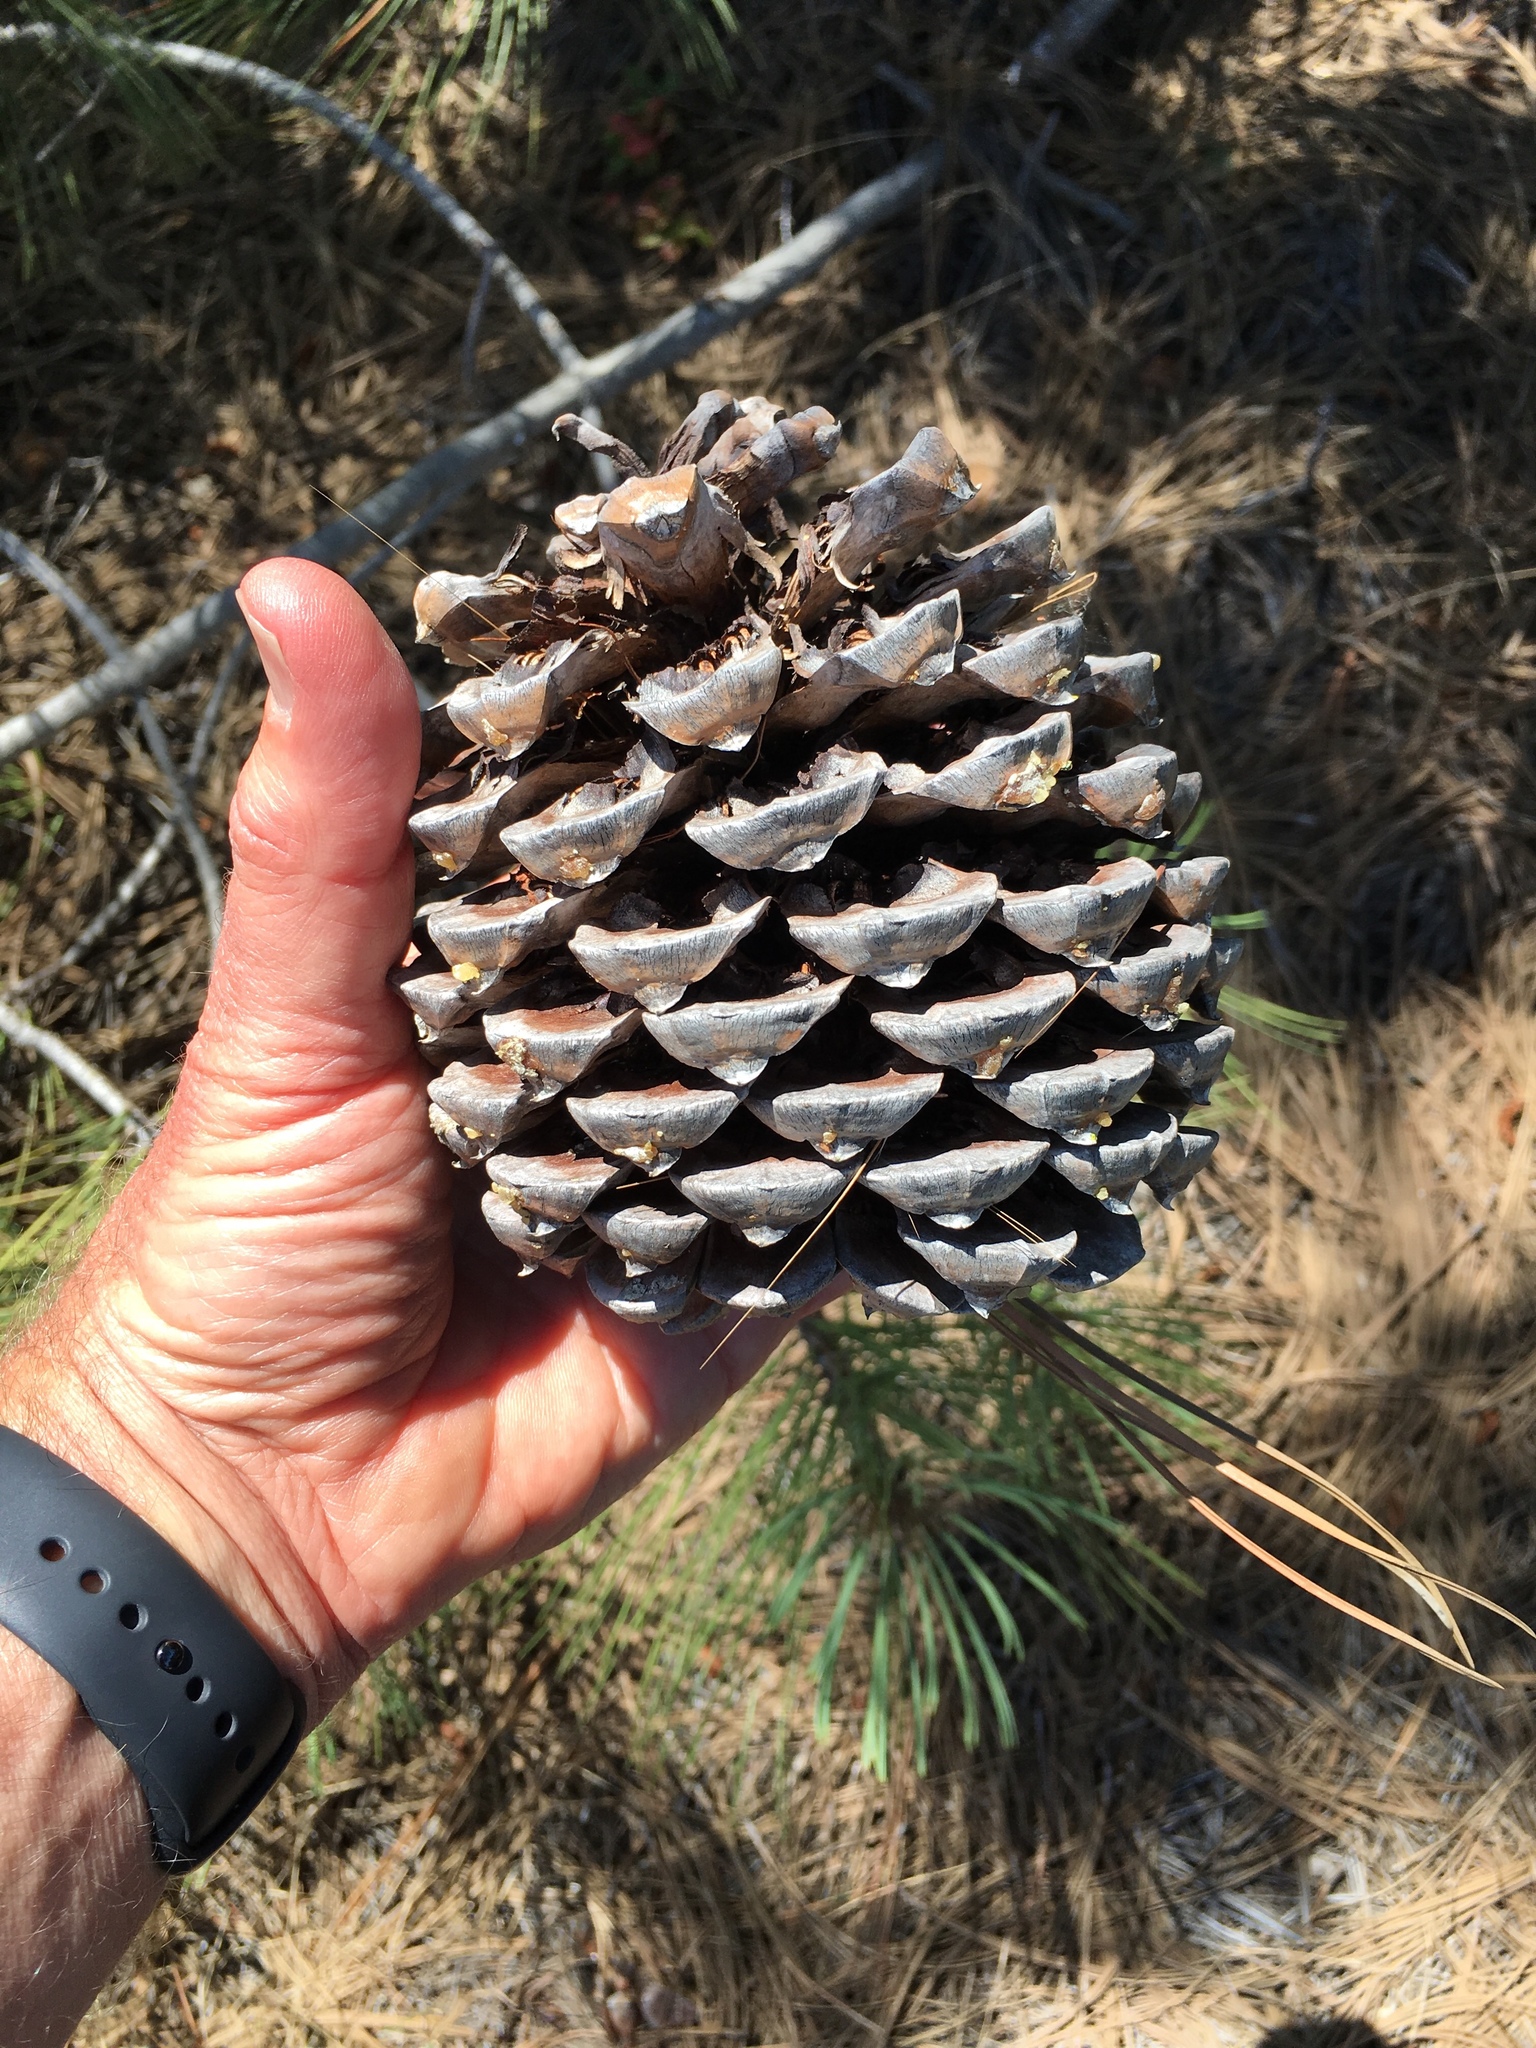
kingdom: Plantae
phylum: Tracheophyta
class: Pinopsida
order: Pinales
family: Pinaceae
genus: Pinus
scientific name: Pinus torreyana
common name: Torrey pine
